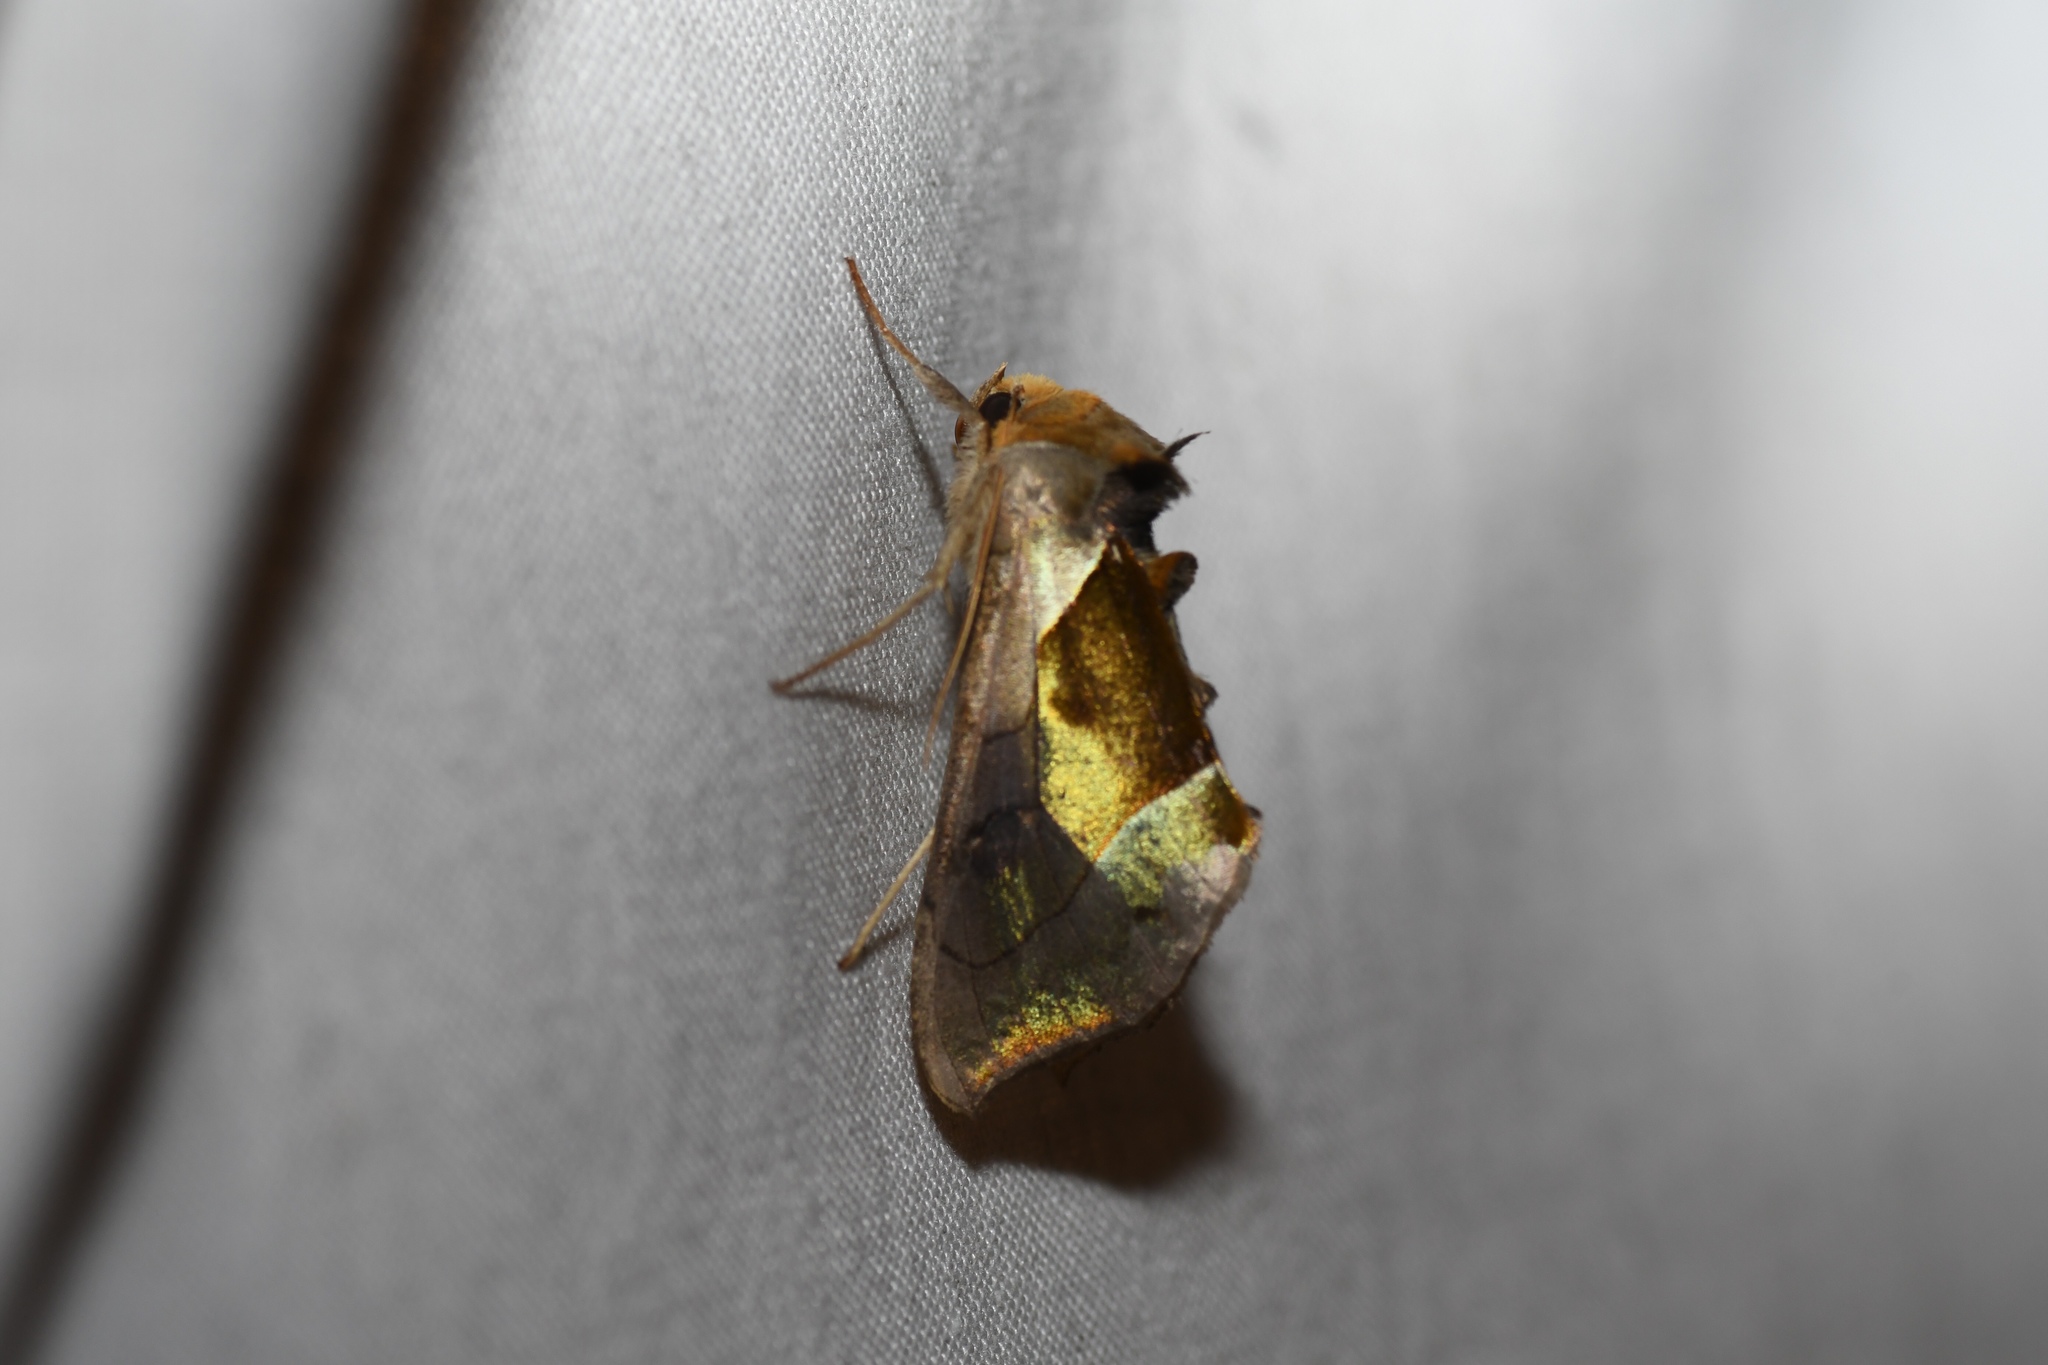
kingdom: Animalia
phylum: Arthropoda
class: Insecta
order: Lepidoptera
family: Noctuidae
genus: Diachrysia
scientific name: Diachrysia balluca
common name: Green-patched looper moth
